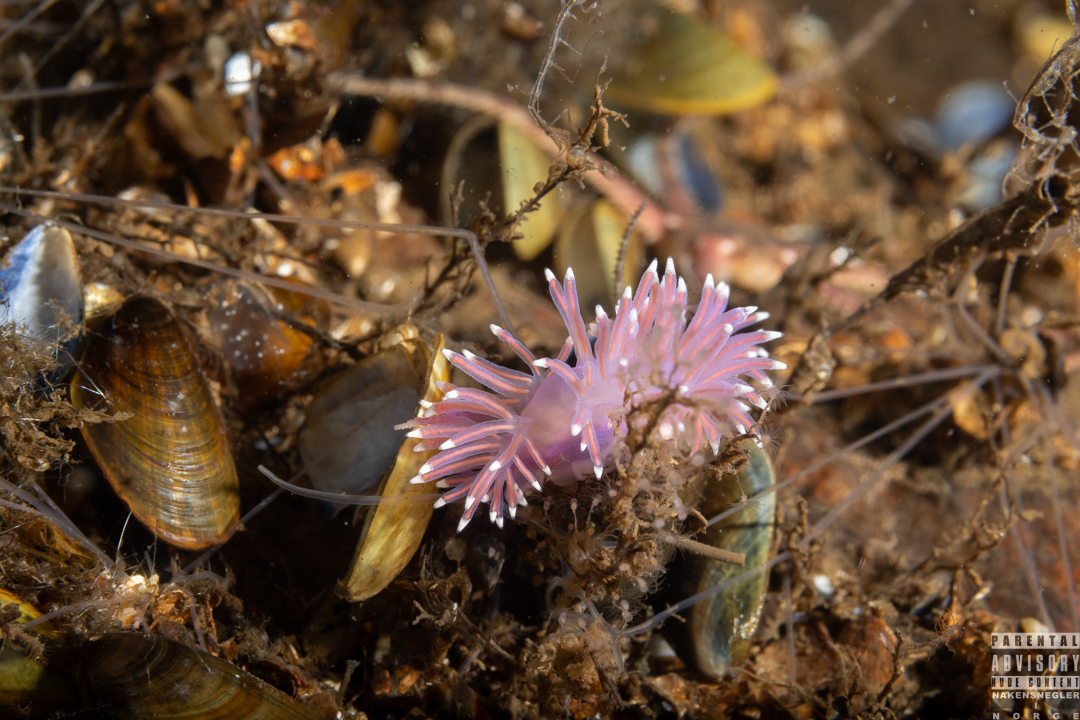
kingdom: Animalia
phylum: Mollusca
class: Gastropoda
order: Nudibranchia
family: Flabellinidae
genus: Edmundsella
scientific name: Edmundsella pedata
